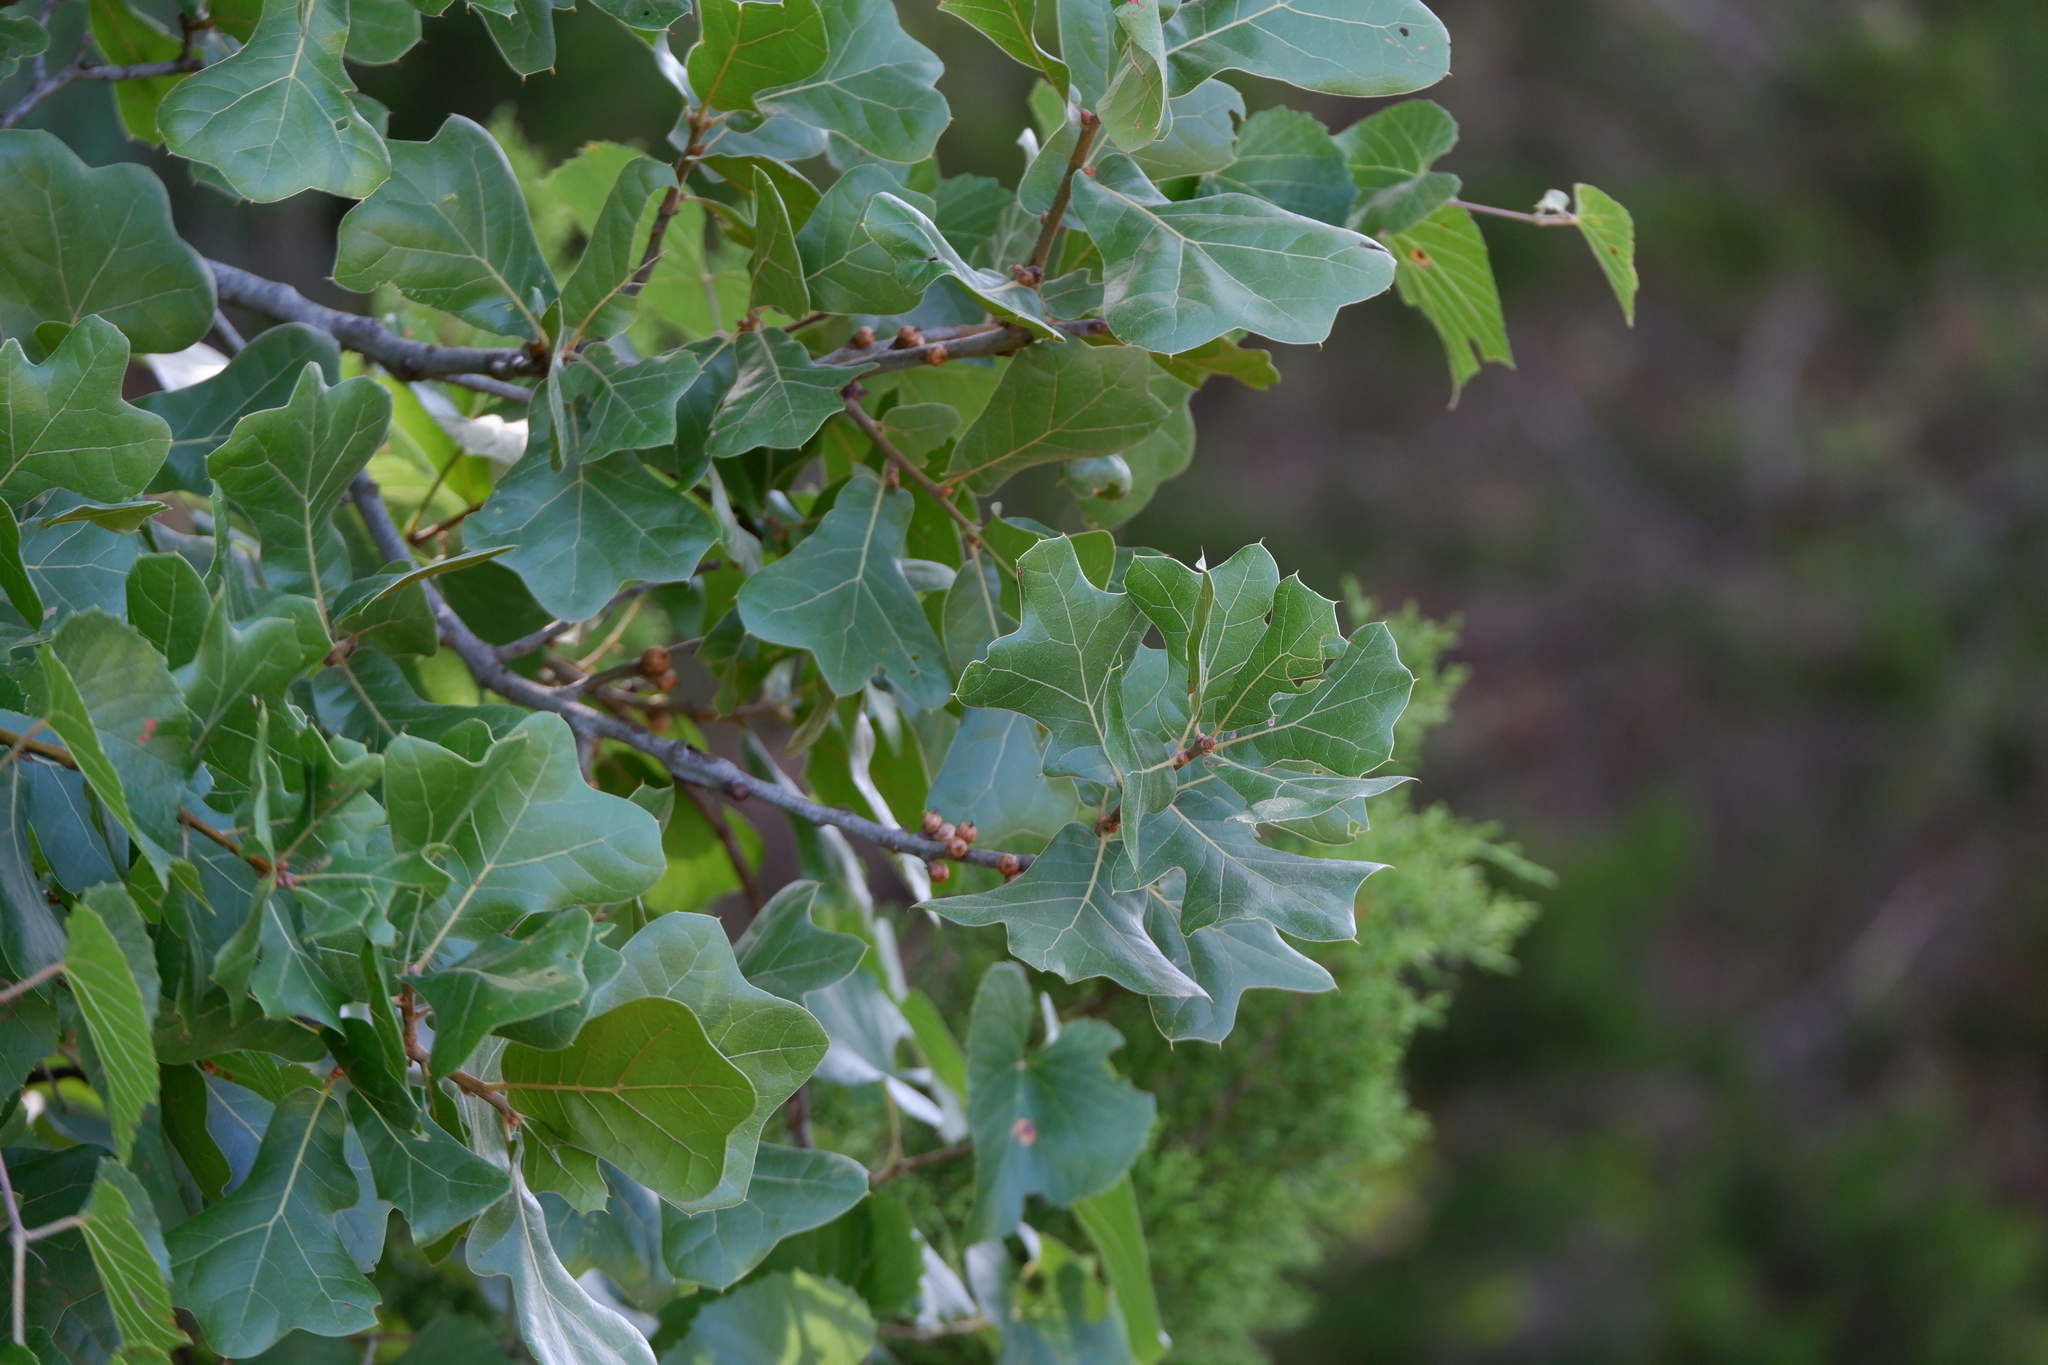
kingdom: Plantae
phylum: Tracheophyta
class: Magnoliopsida
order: Fagales
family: Fagaceae
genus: Quercus
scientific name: Quercus marilandica
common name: Blackjack oak
